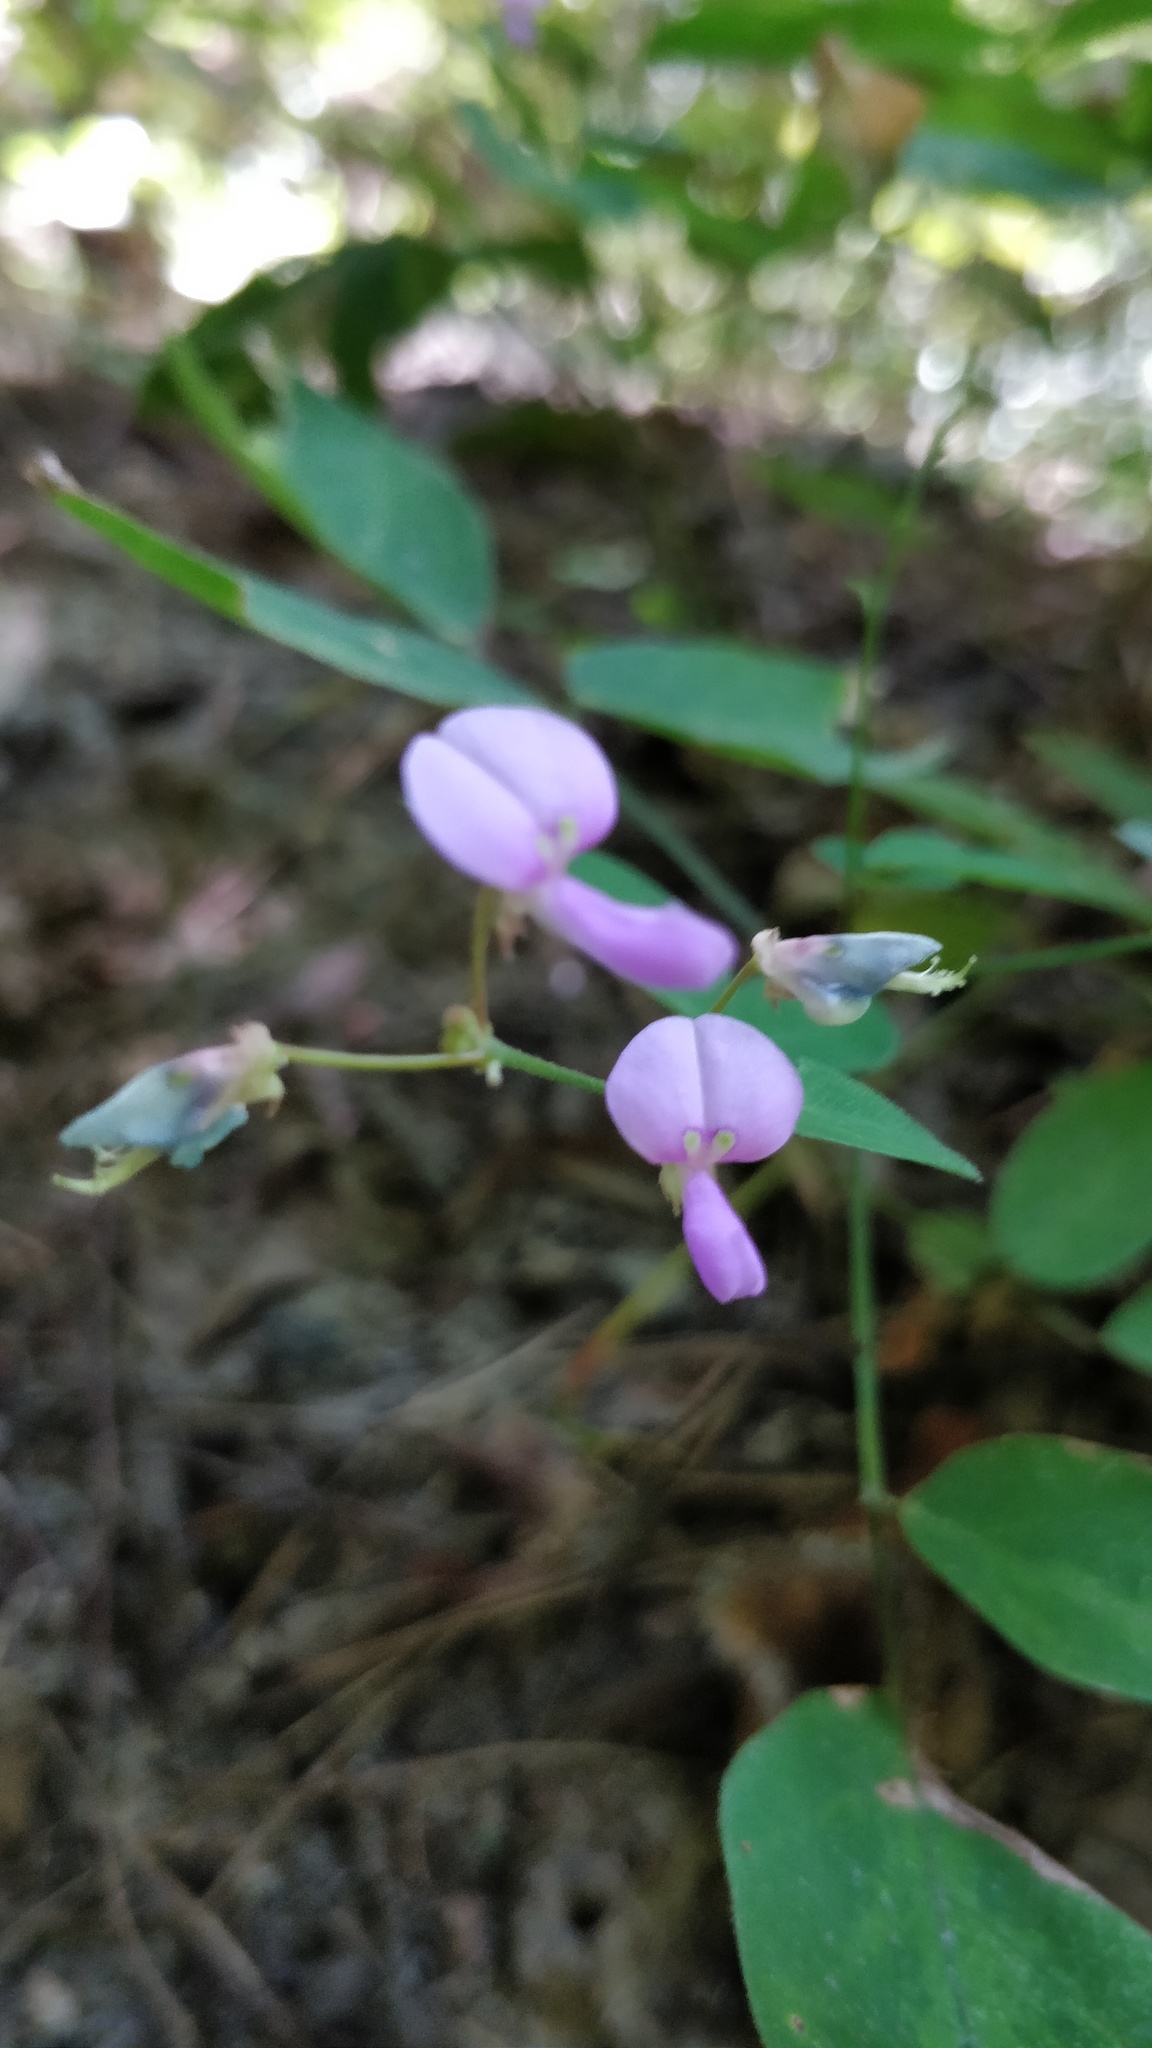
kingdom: Plantae
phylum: Tracheophyta
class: Magnoliopsida
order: Fabales
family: Fabaceae
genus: Desmodium
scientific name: Desmodium perplexum
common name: Perplexed tick trefoil
